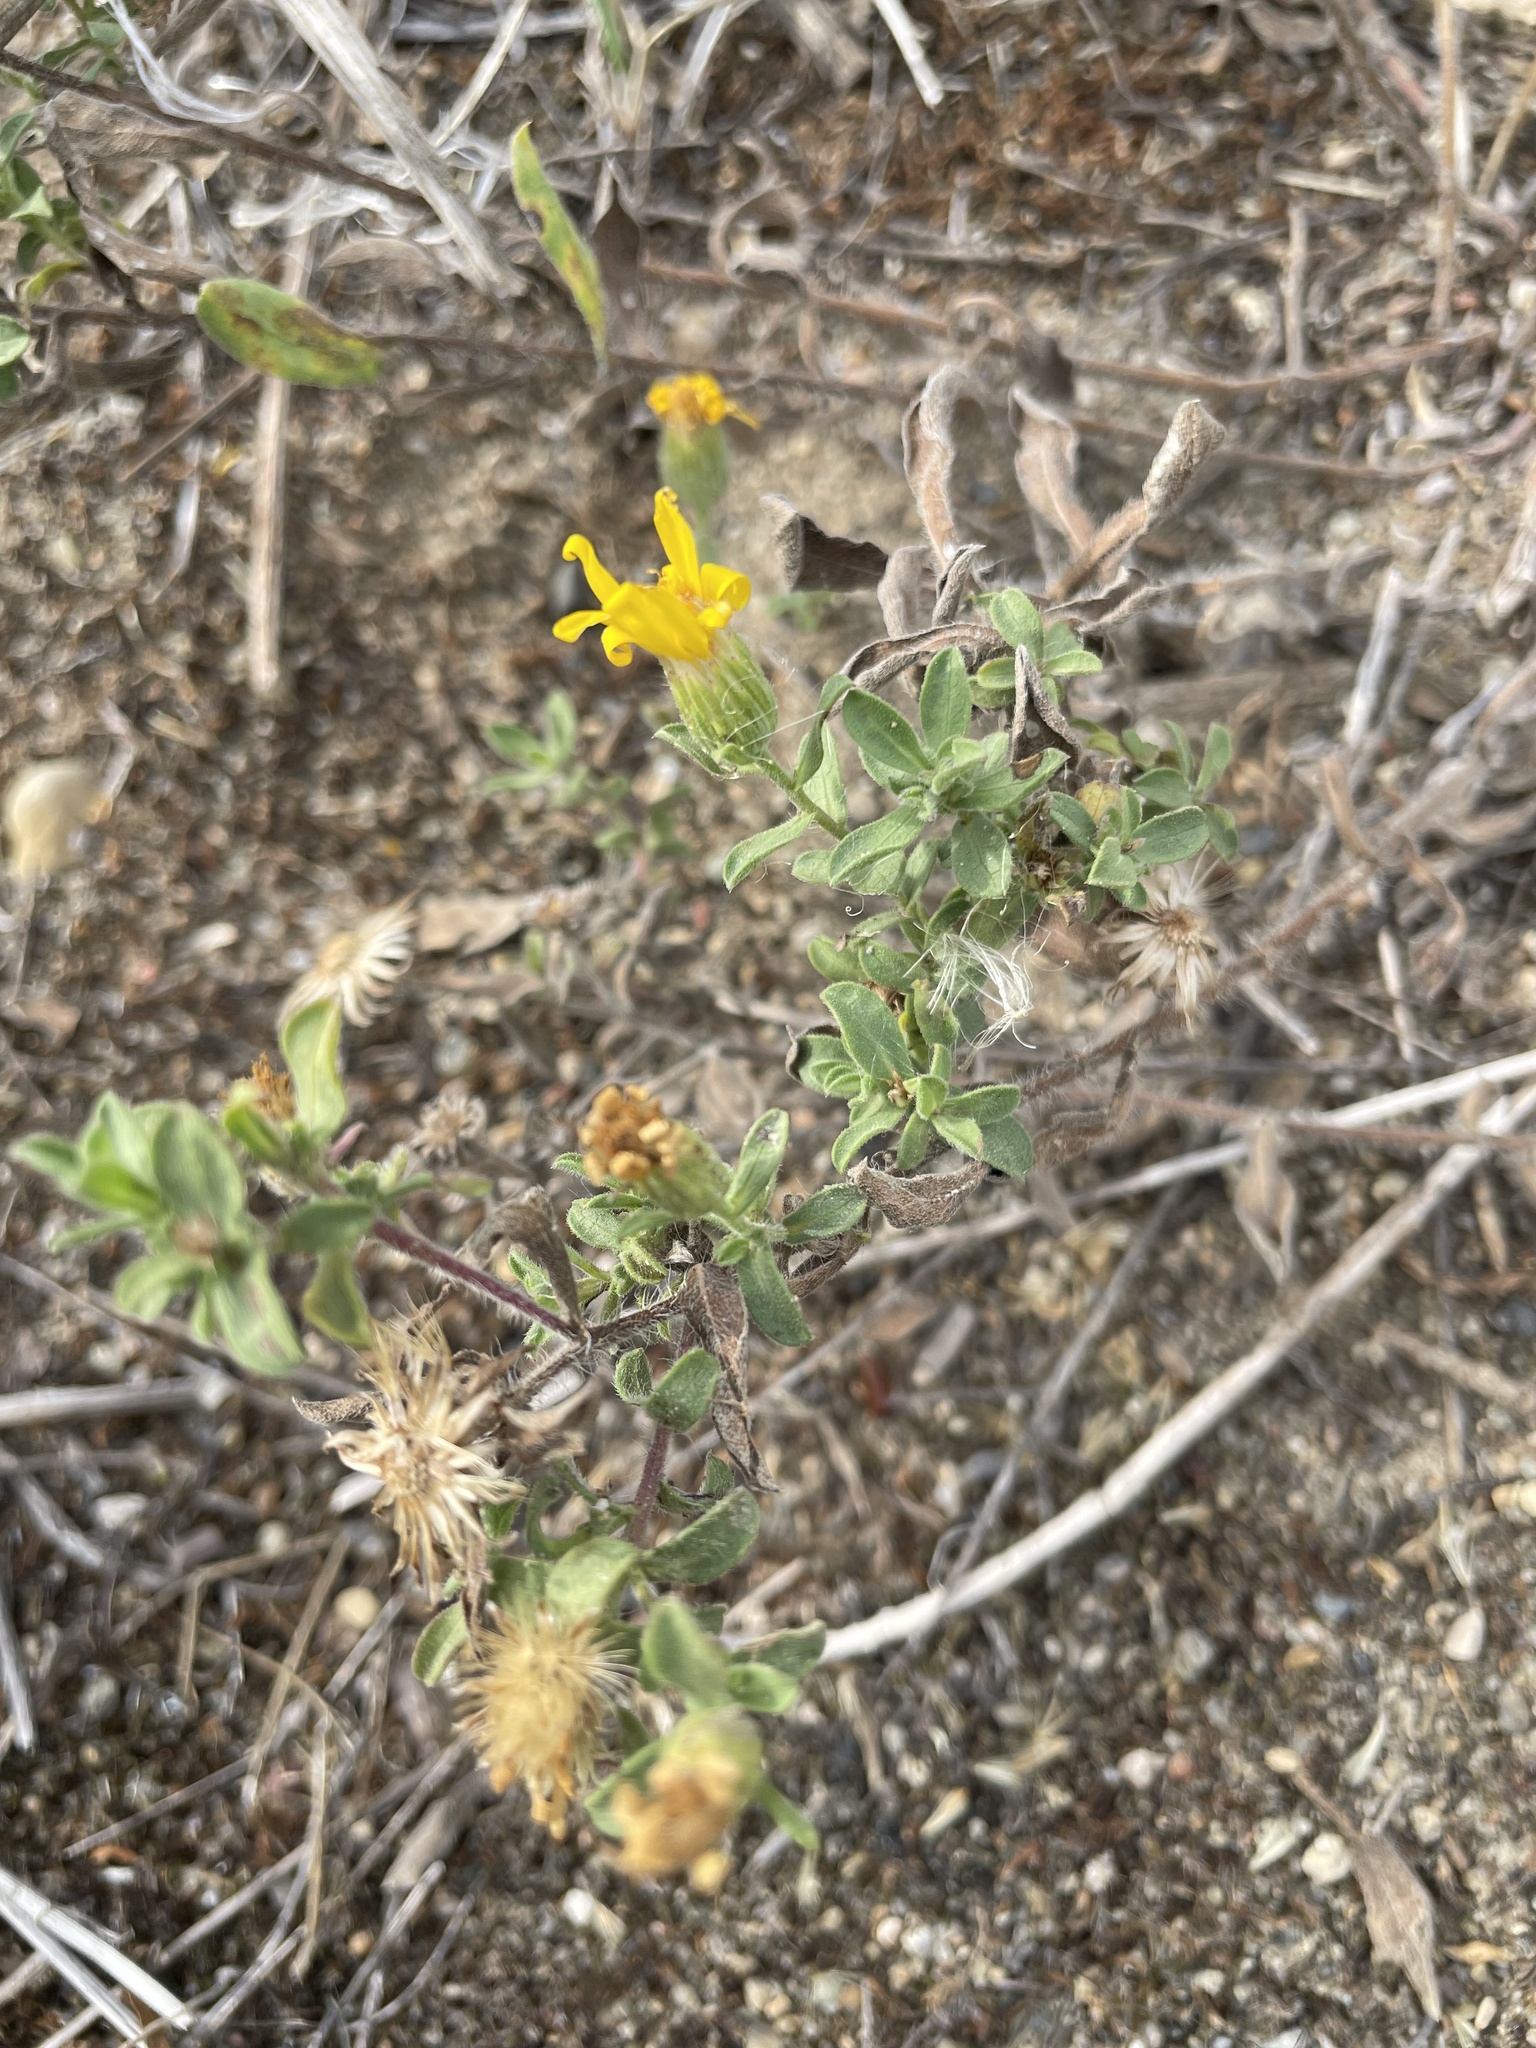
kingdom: Plantae
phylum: Tracheophyta
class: Magnoliopsida
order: Asterales
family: Asteraceae
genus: Heterotheca
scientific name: Heterotheca villosa
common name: Hairy false goldenaster
